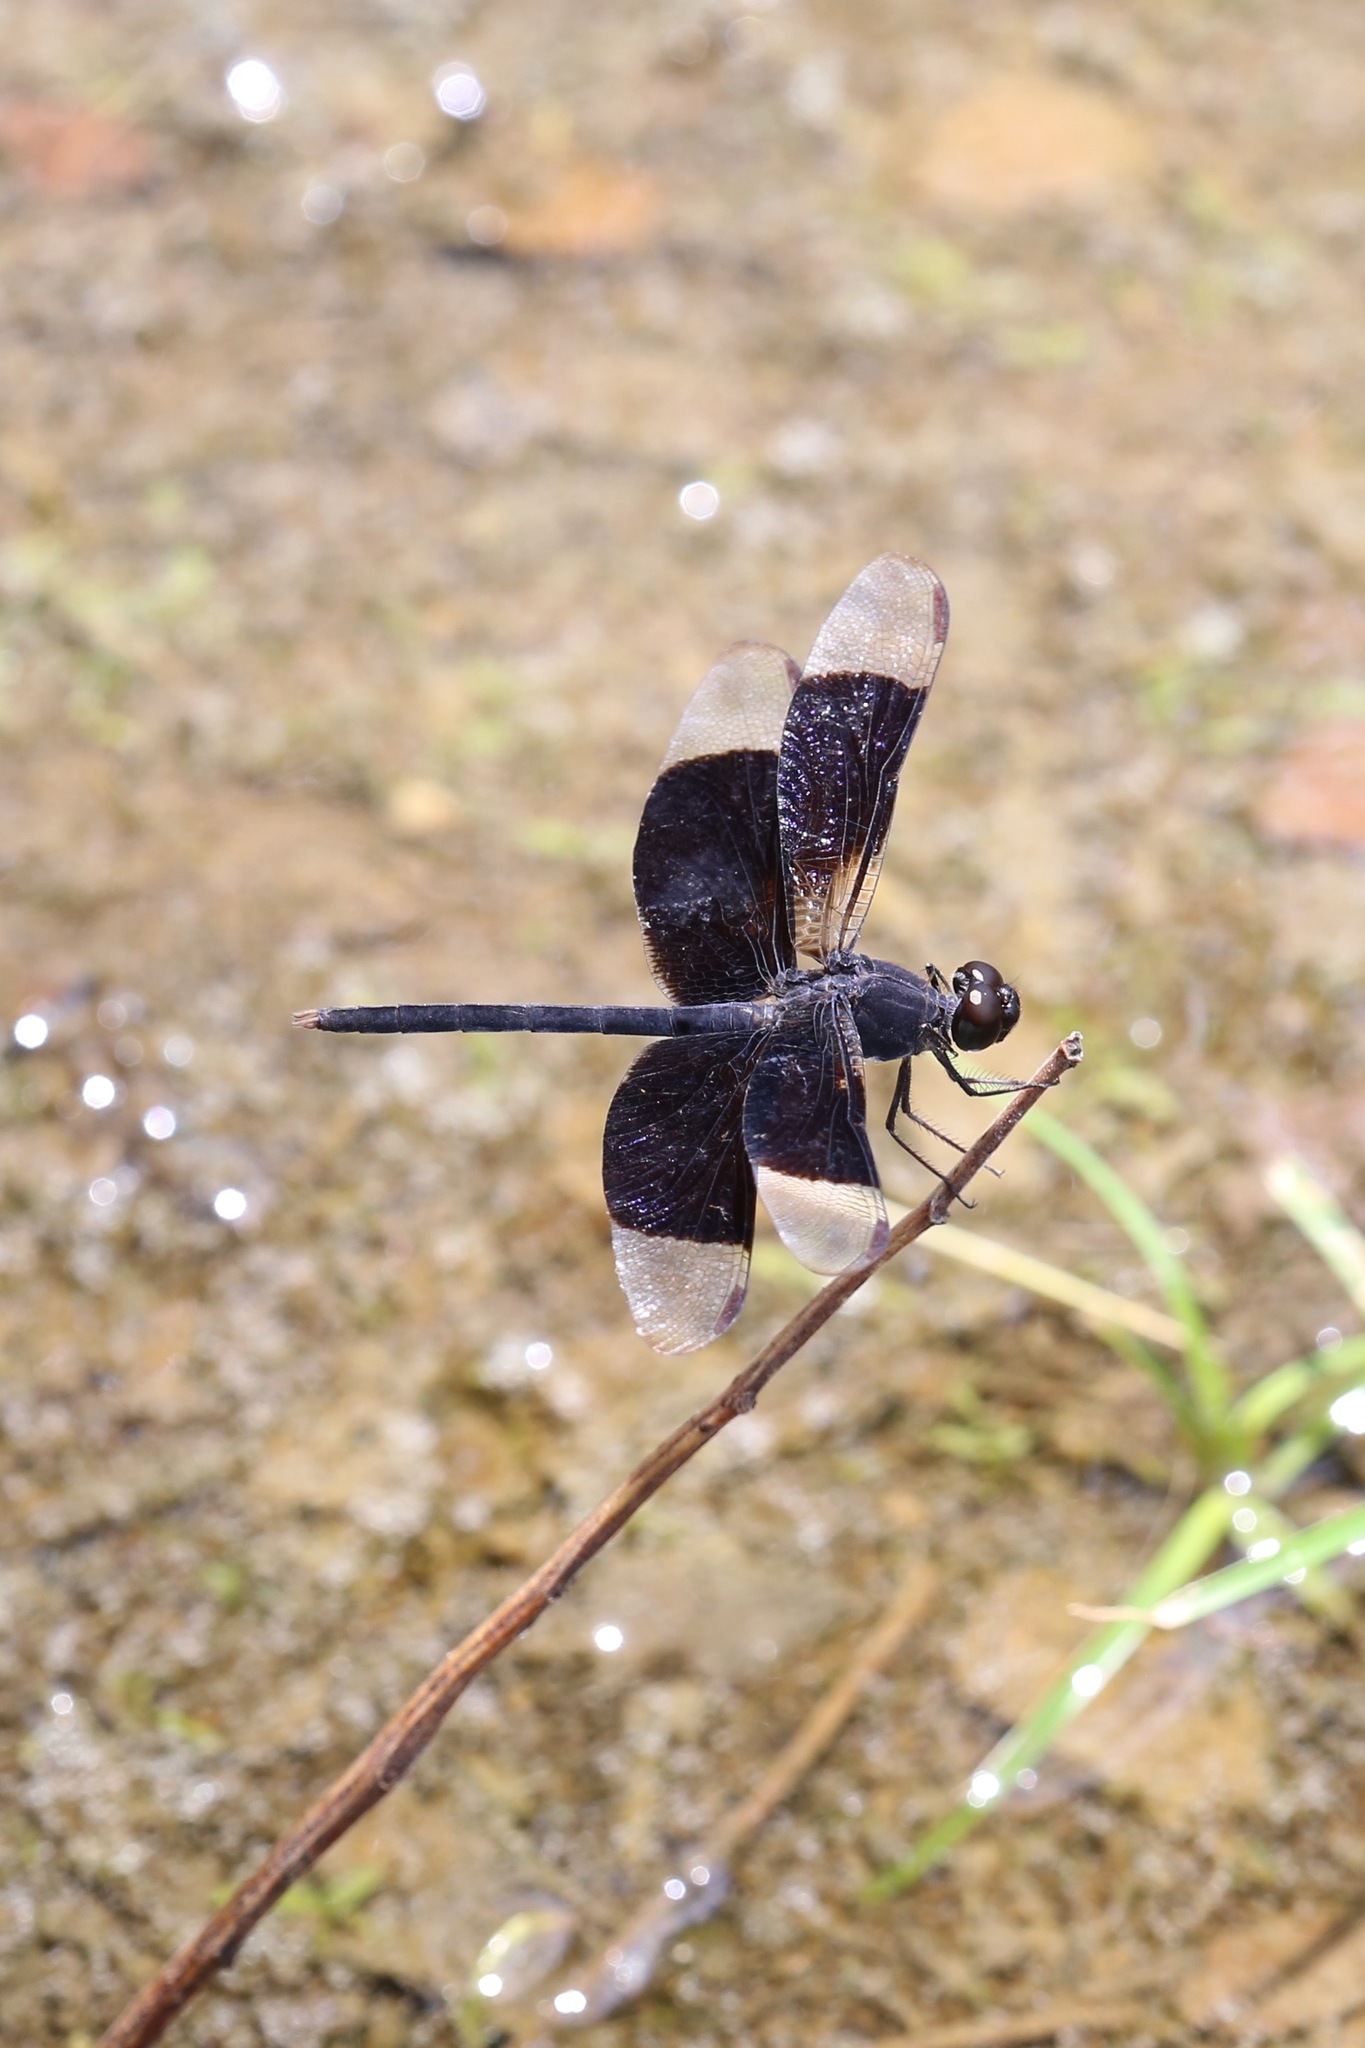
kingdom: Animalia
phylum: Arthropoda
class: Insecta
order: Odonata
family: Libellulidae
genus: Erythrodiplax
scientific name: Erythrodiplax funerea
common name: Black-winged dragonlet
